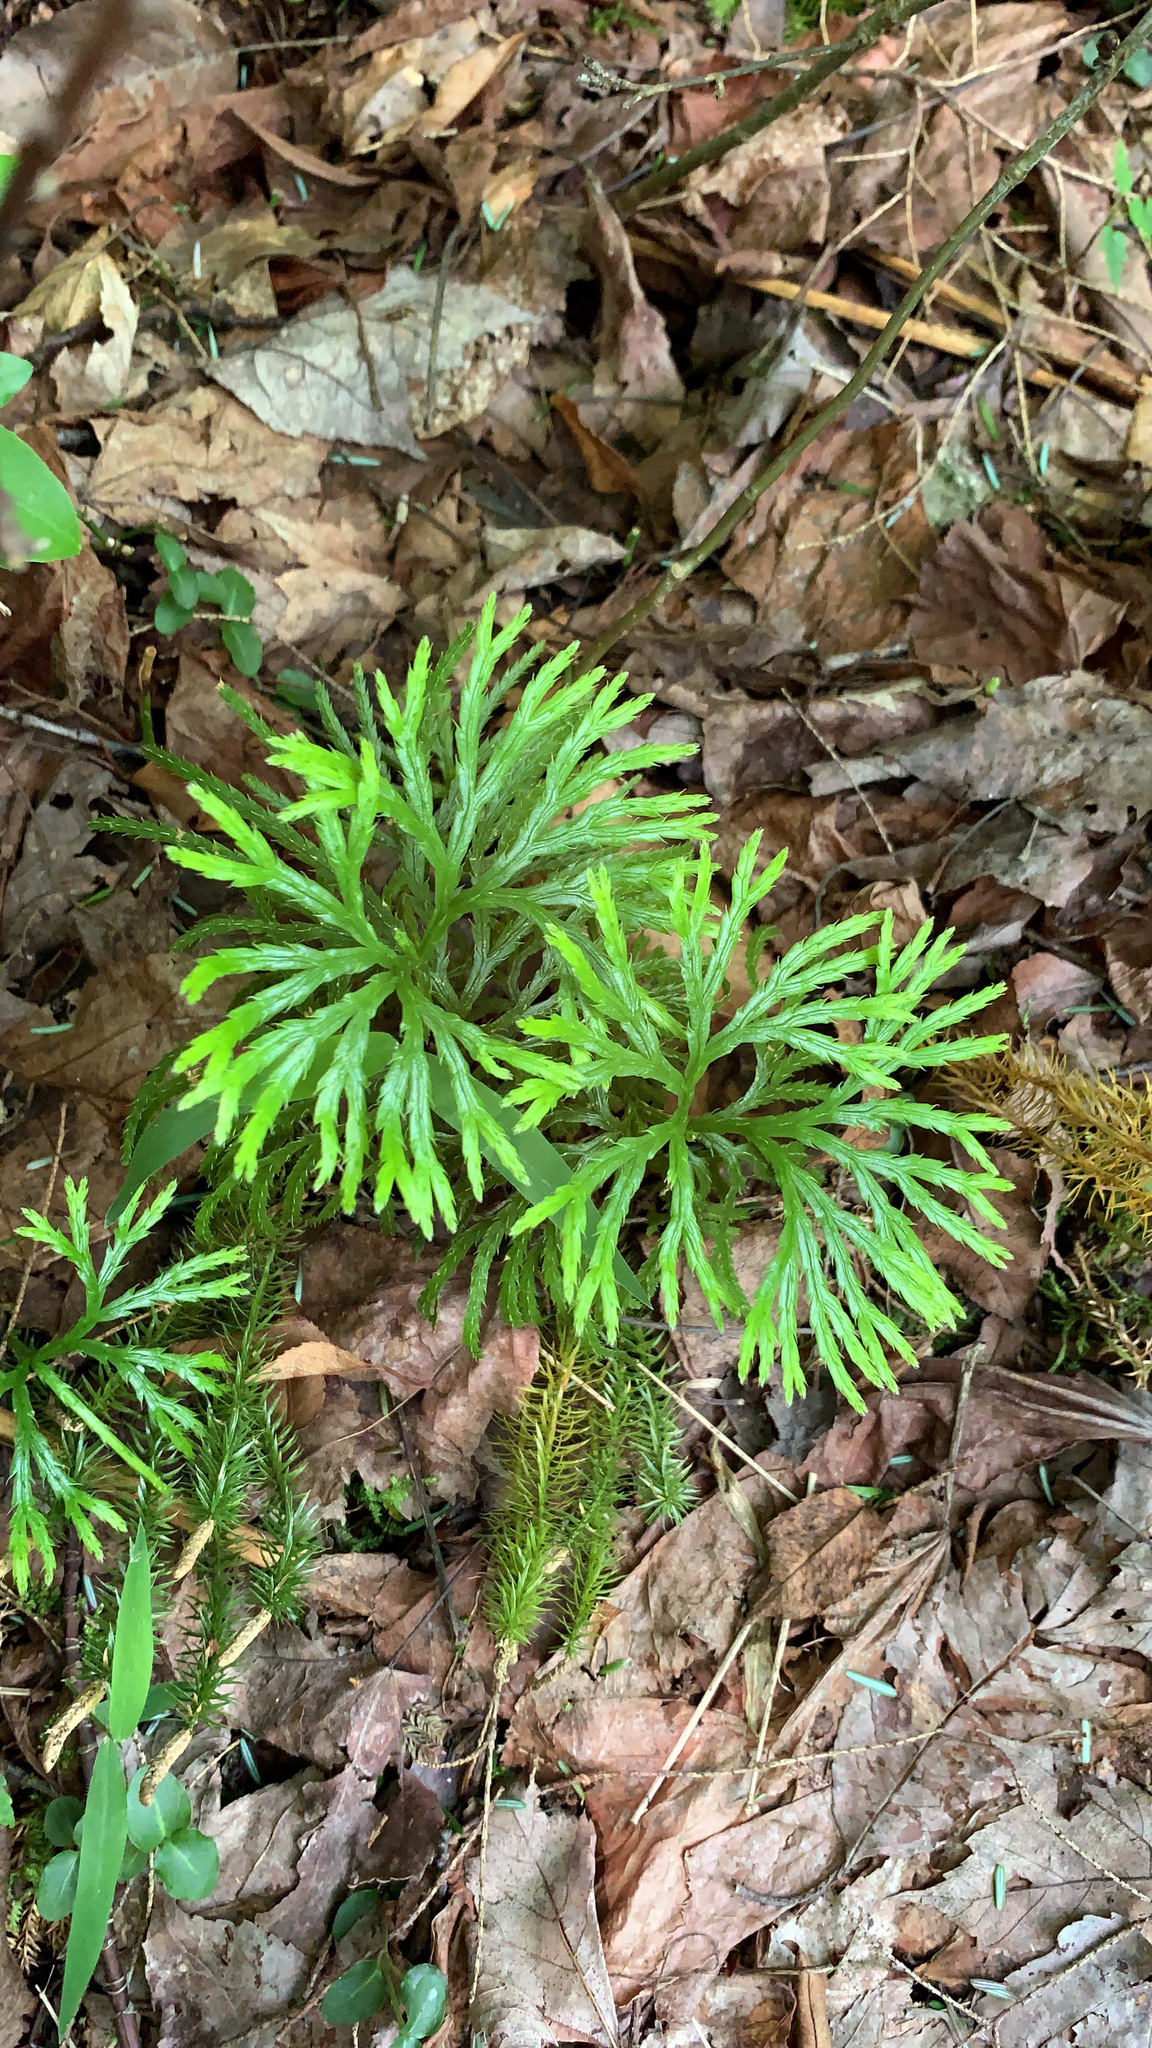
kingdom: Plantae
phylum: Tracheophyta
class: Lycopodiopsida
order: Lycopodiales
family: Lycopodiaceae
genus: Diphasiastrum
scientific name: Diphasiastrum digitatum
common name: Southern running-pine
